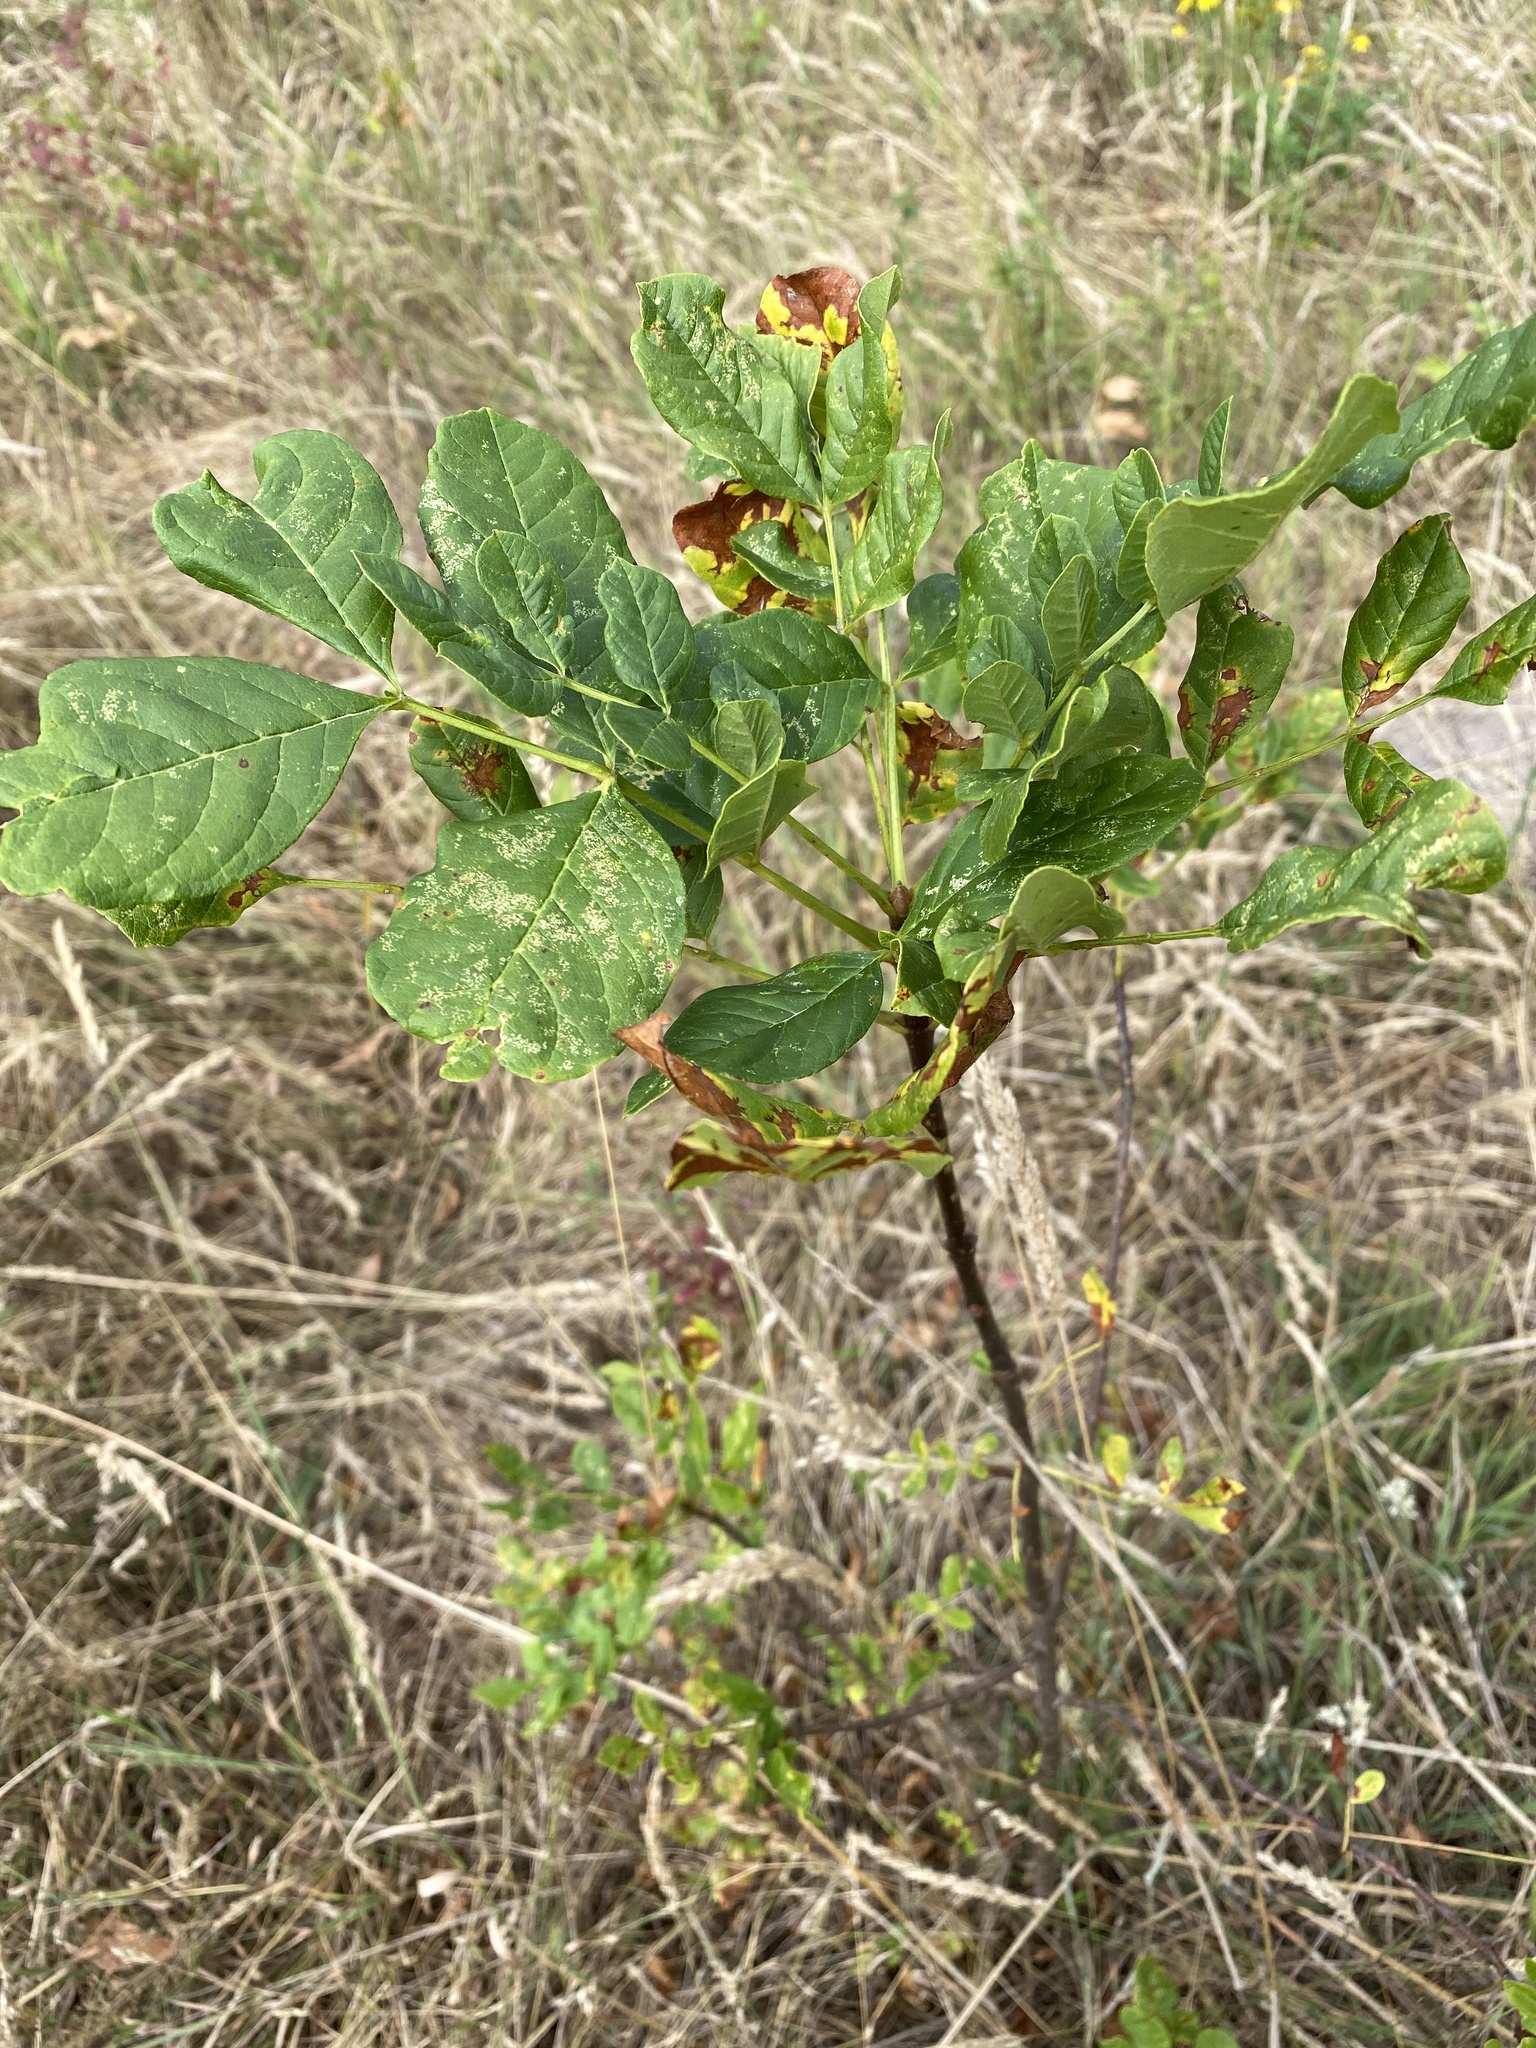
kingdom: Plantae
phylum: Tracheophyta
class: Magnoliopsida
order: Lamiales
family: Oleaceae
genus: Fraxinus
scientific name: Fraxinus latifolia
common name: Oregon ash
